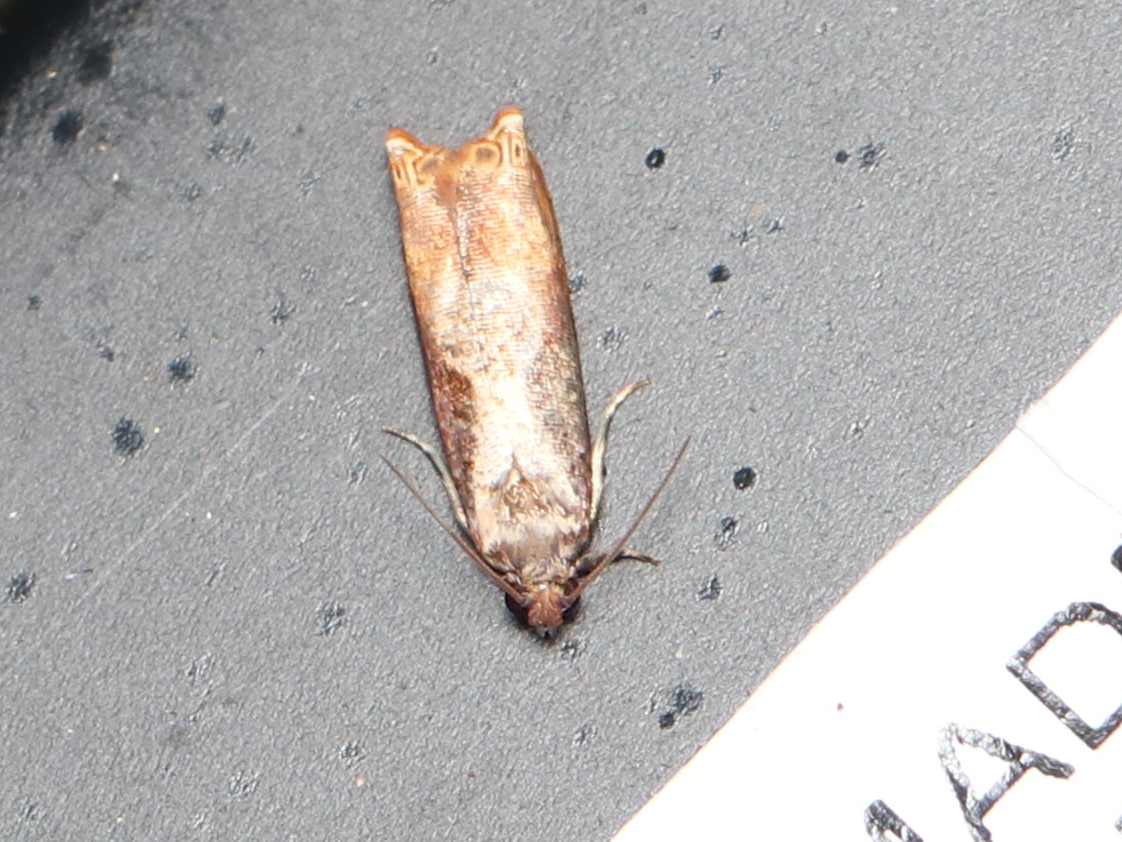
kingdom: Animalia
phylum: Arthropoda
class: Insecta
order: Lepidoptera
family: Tortricidae
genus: Episimus
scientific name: Episimus tyrius
